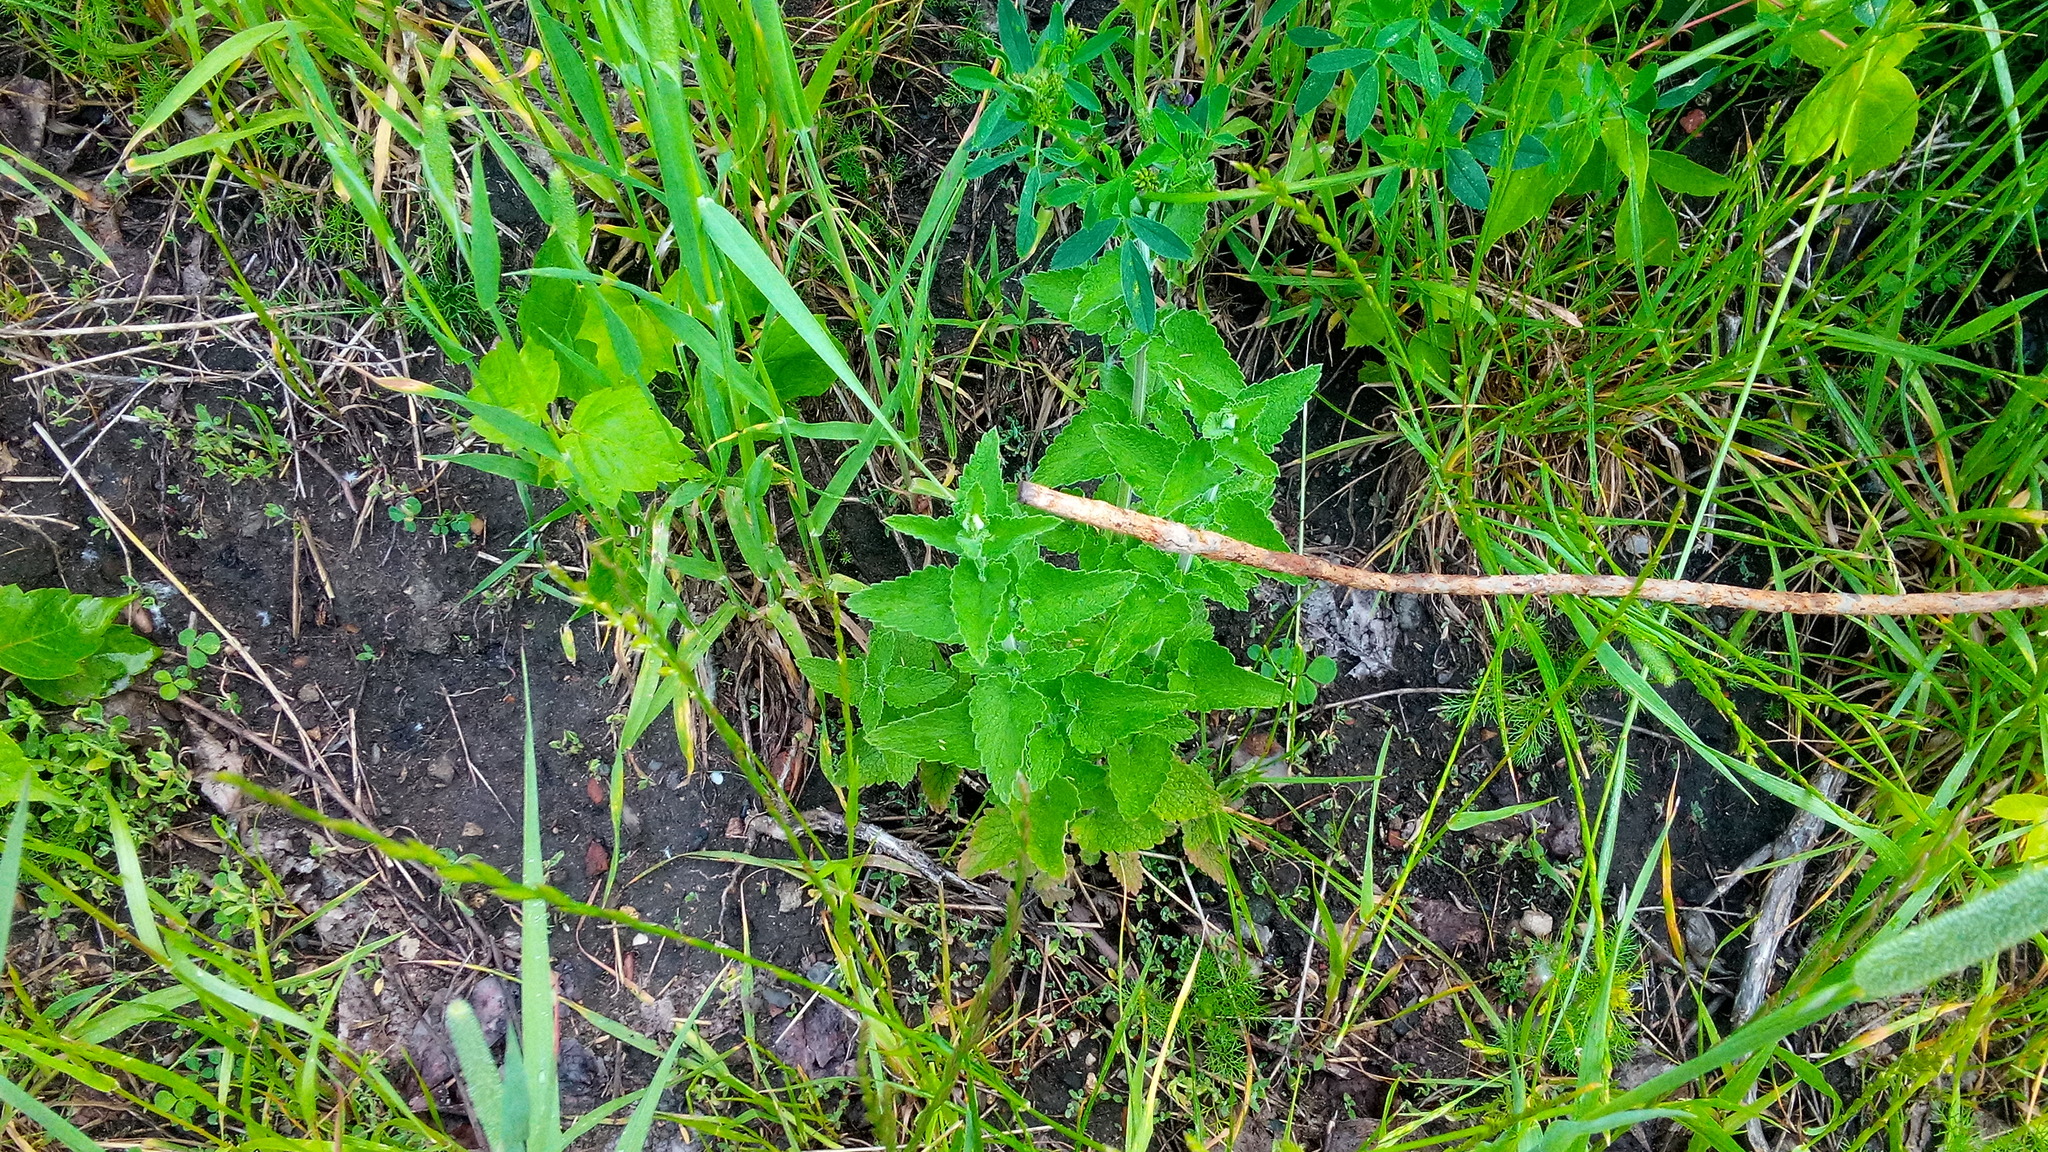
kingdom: Plantae
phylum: Tracheophyta
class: Magnoliopsida
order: Lamiales
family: Lamiaceae
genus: Nepeta
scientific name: Nepeta cataria
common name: Catnip
